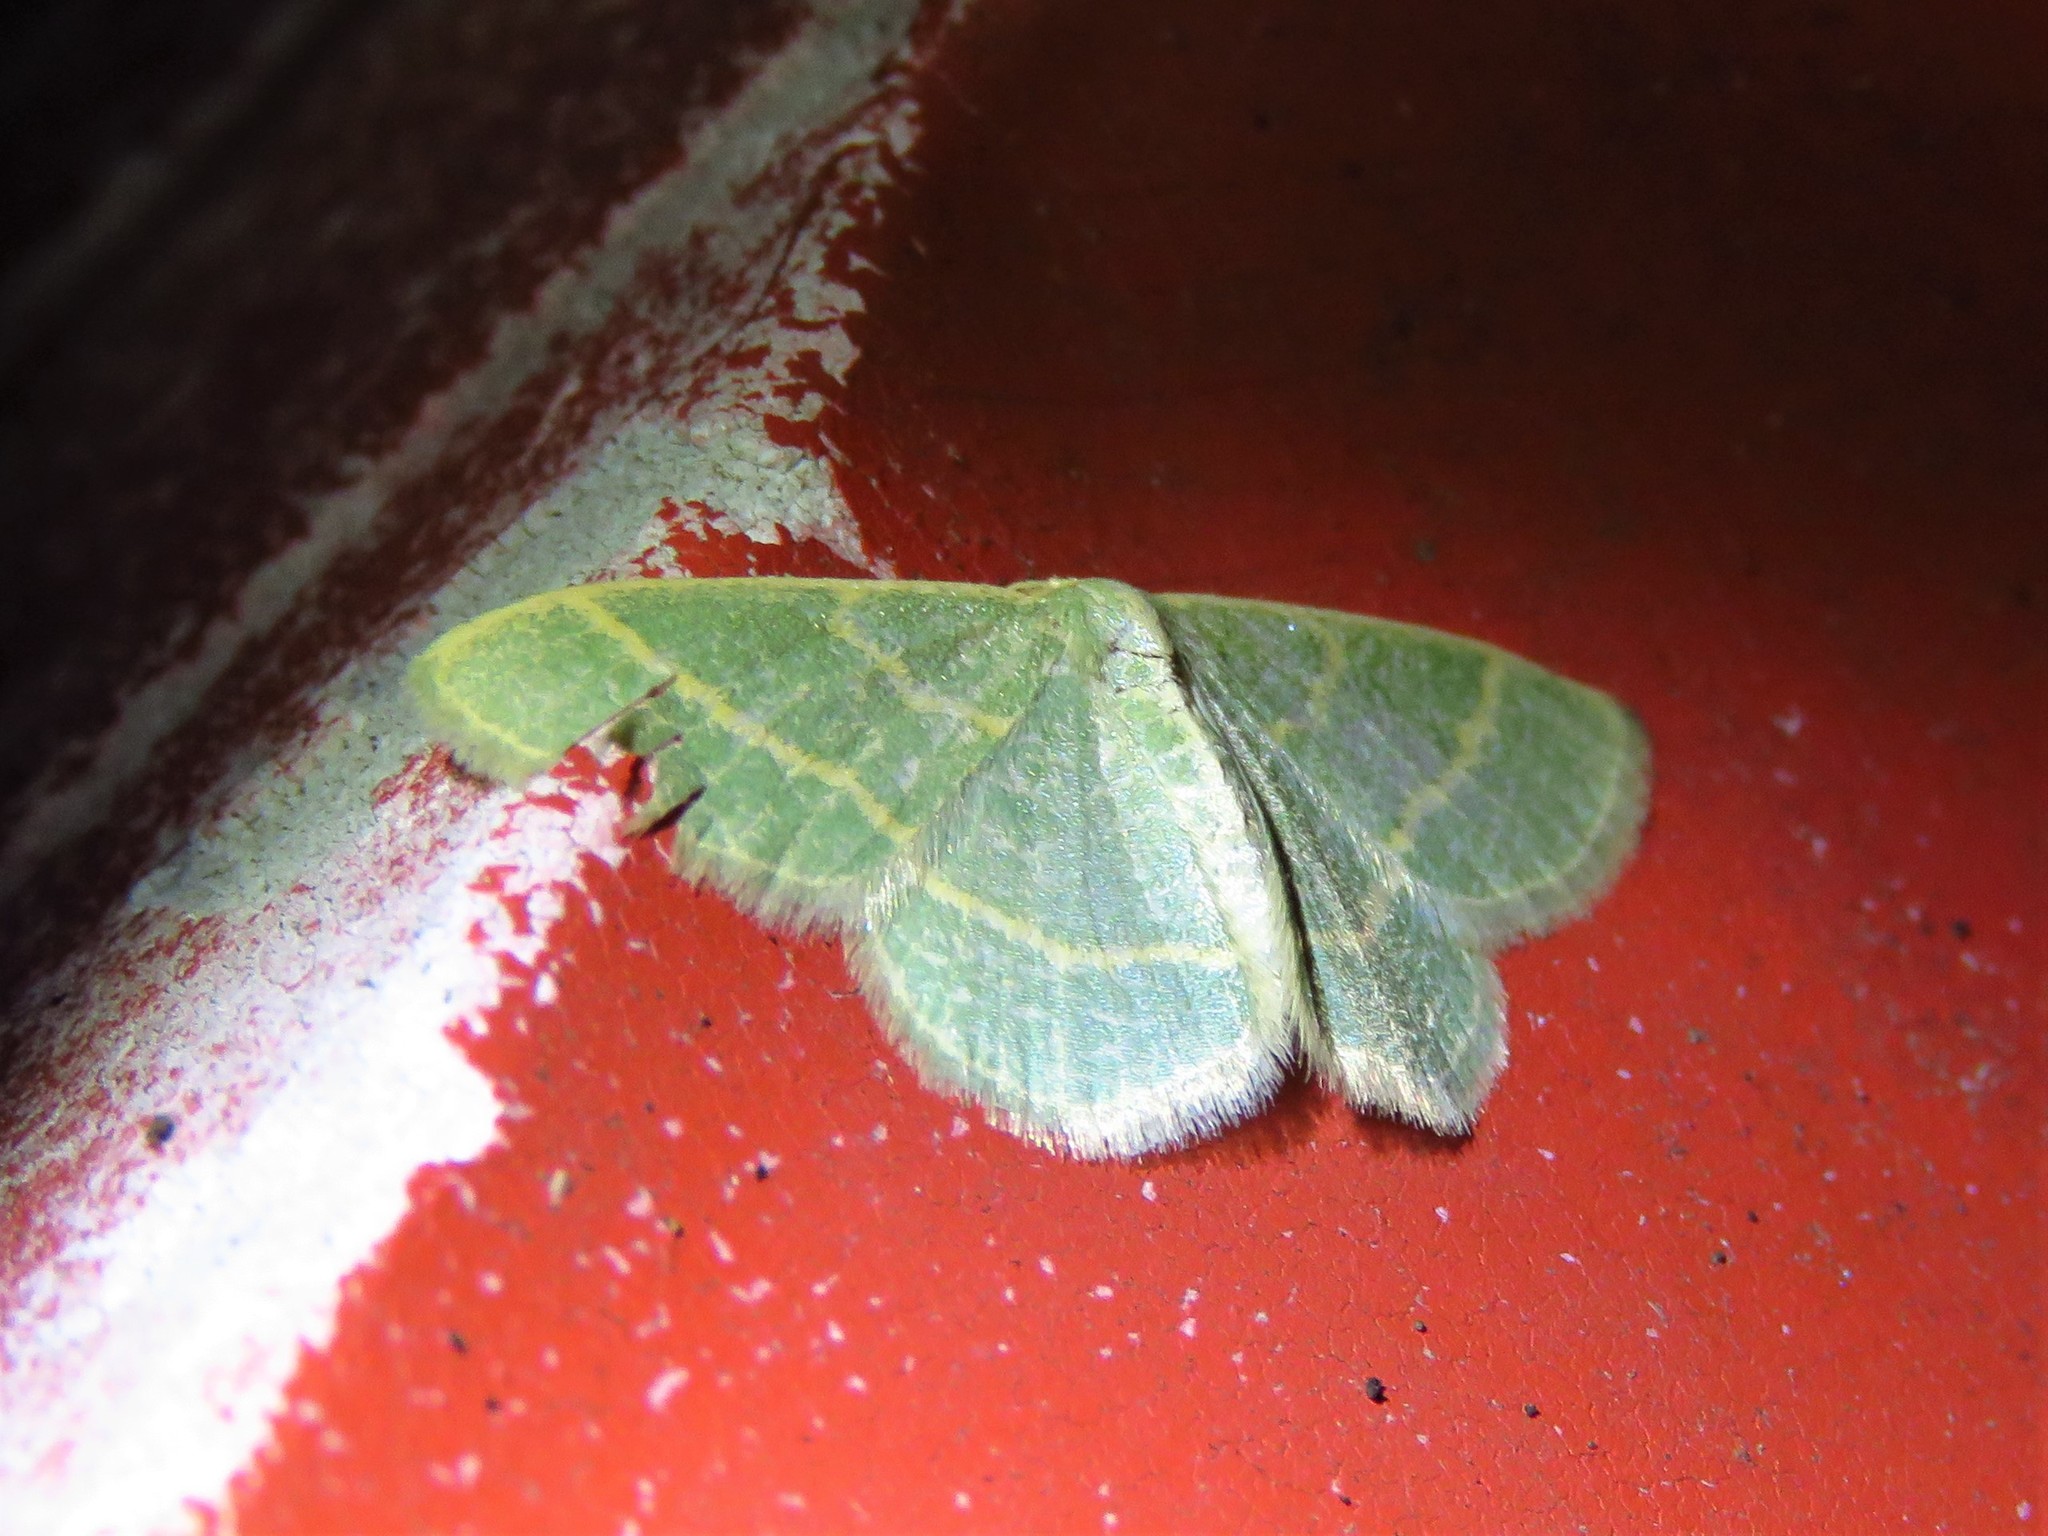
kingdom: Animalia
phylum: Arthropoda
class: Insecta
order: Lepidoptera
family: Geometridae
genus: Chlorochlamys
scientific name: Chlorochlamys chloroleucaria
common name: Blackberry looper
